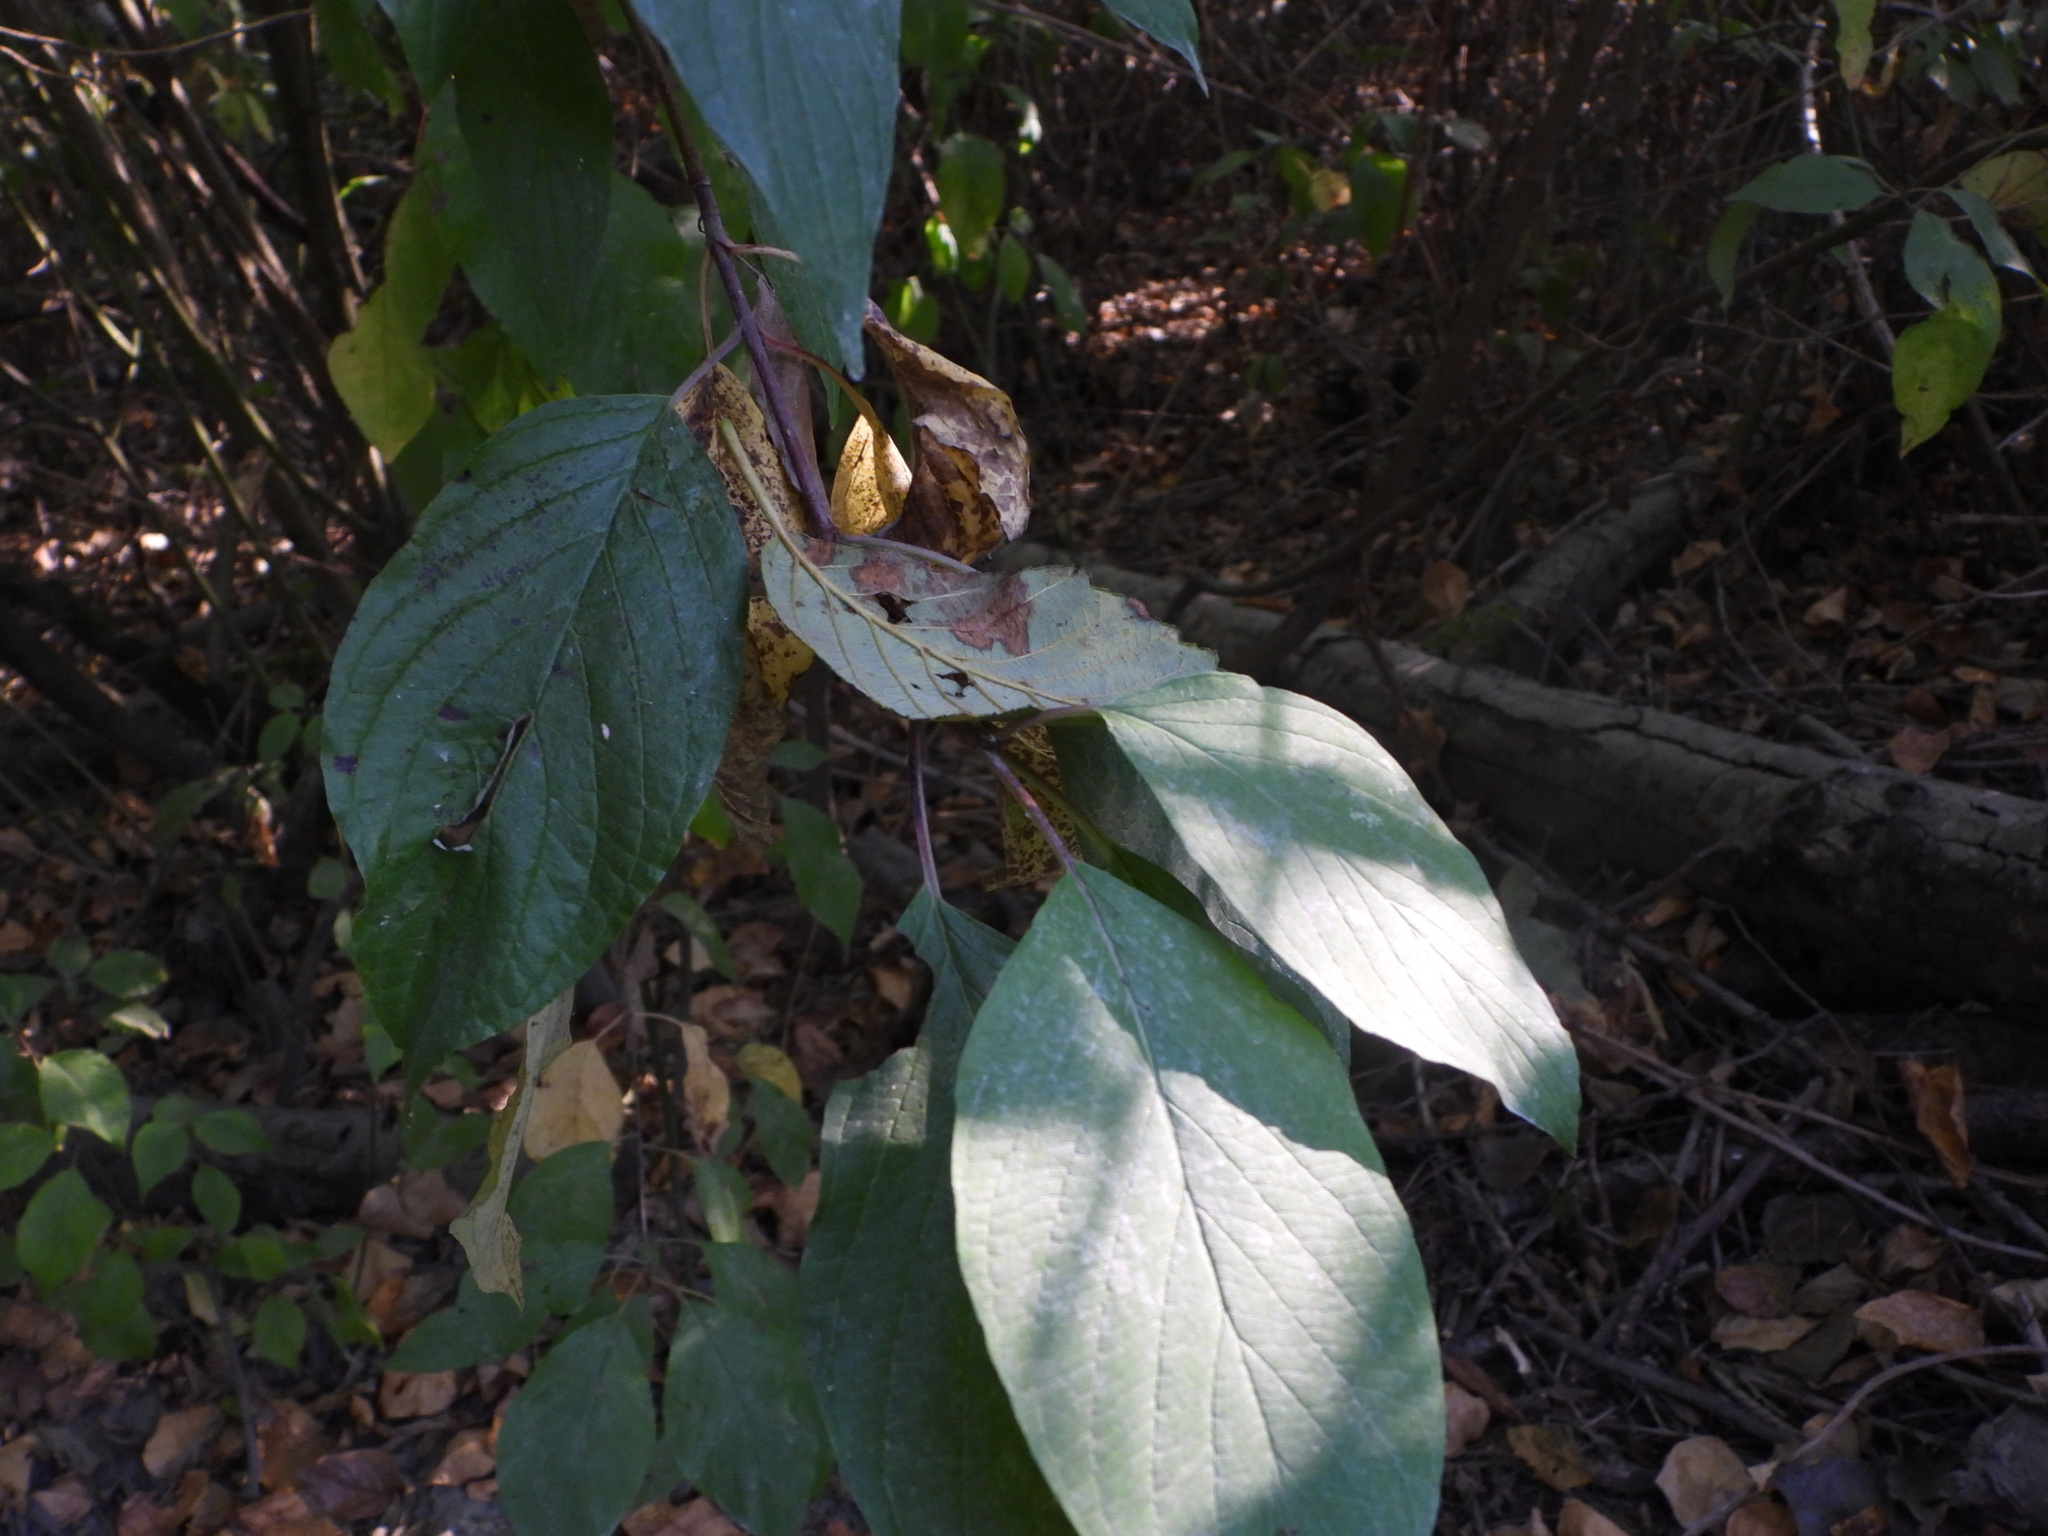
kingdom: Plantae
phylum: Tracheophyta
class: Magnoliopsida
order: Cornales
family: Cornaceae
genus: Cornus
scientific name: Cornus sericea
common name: Red-osier dogwood
